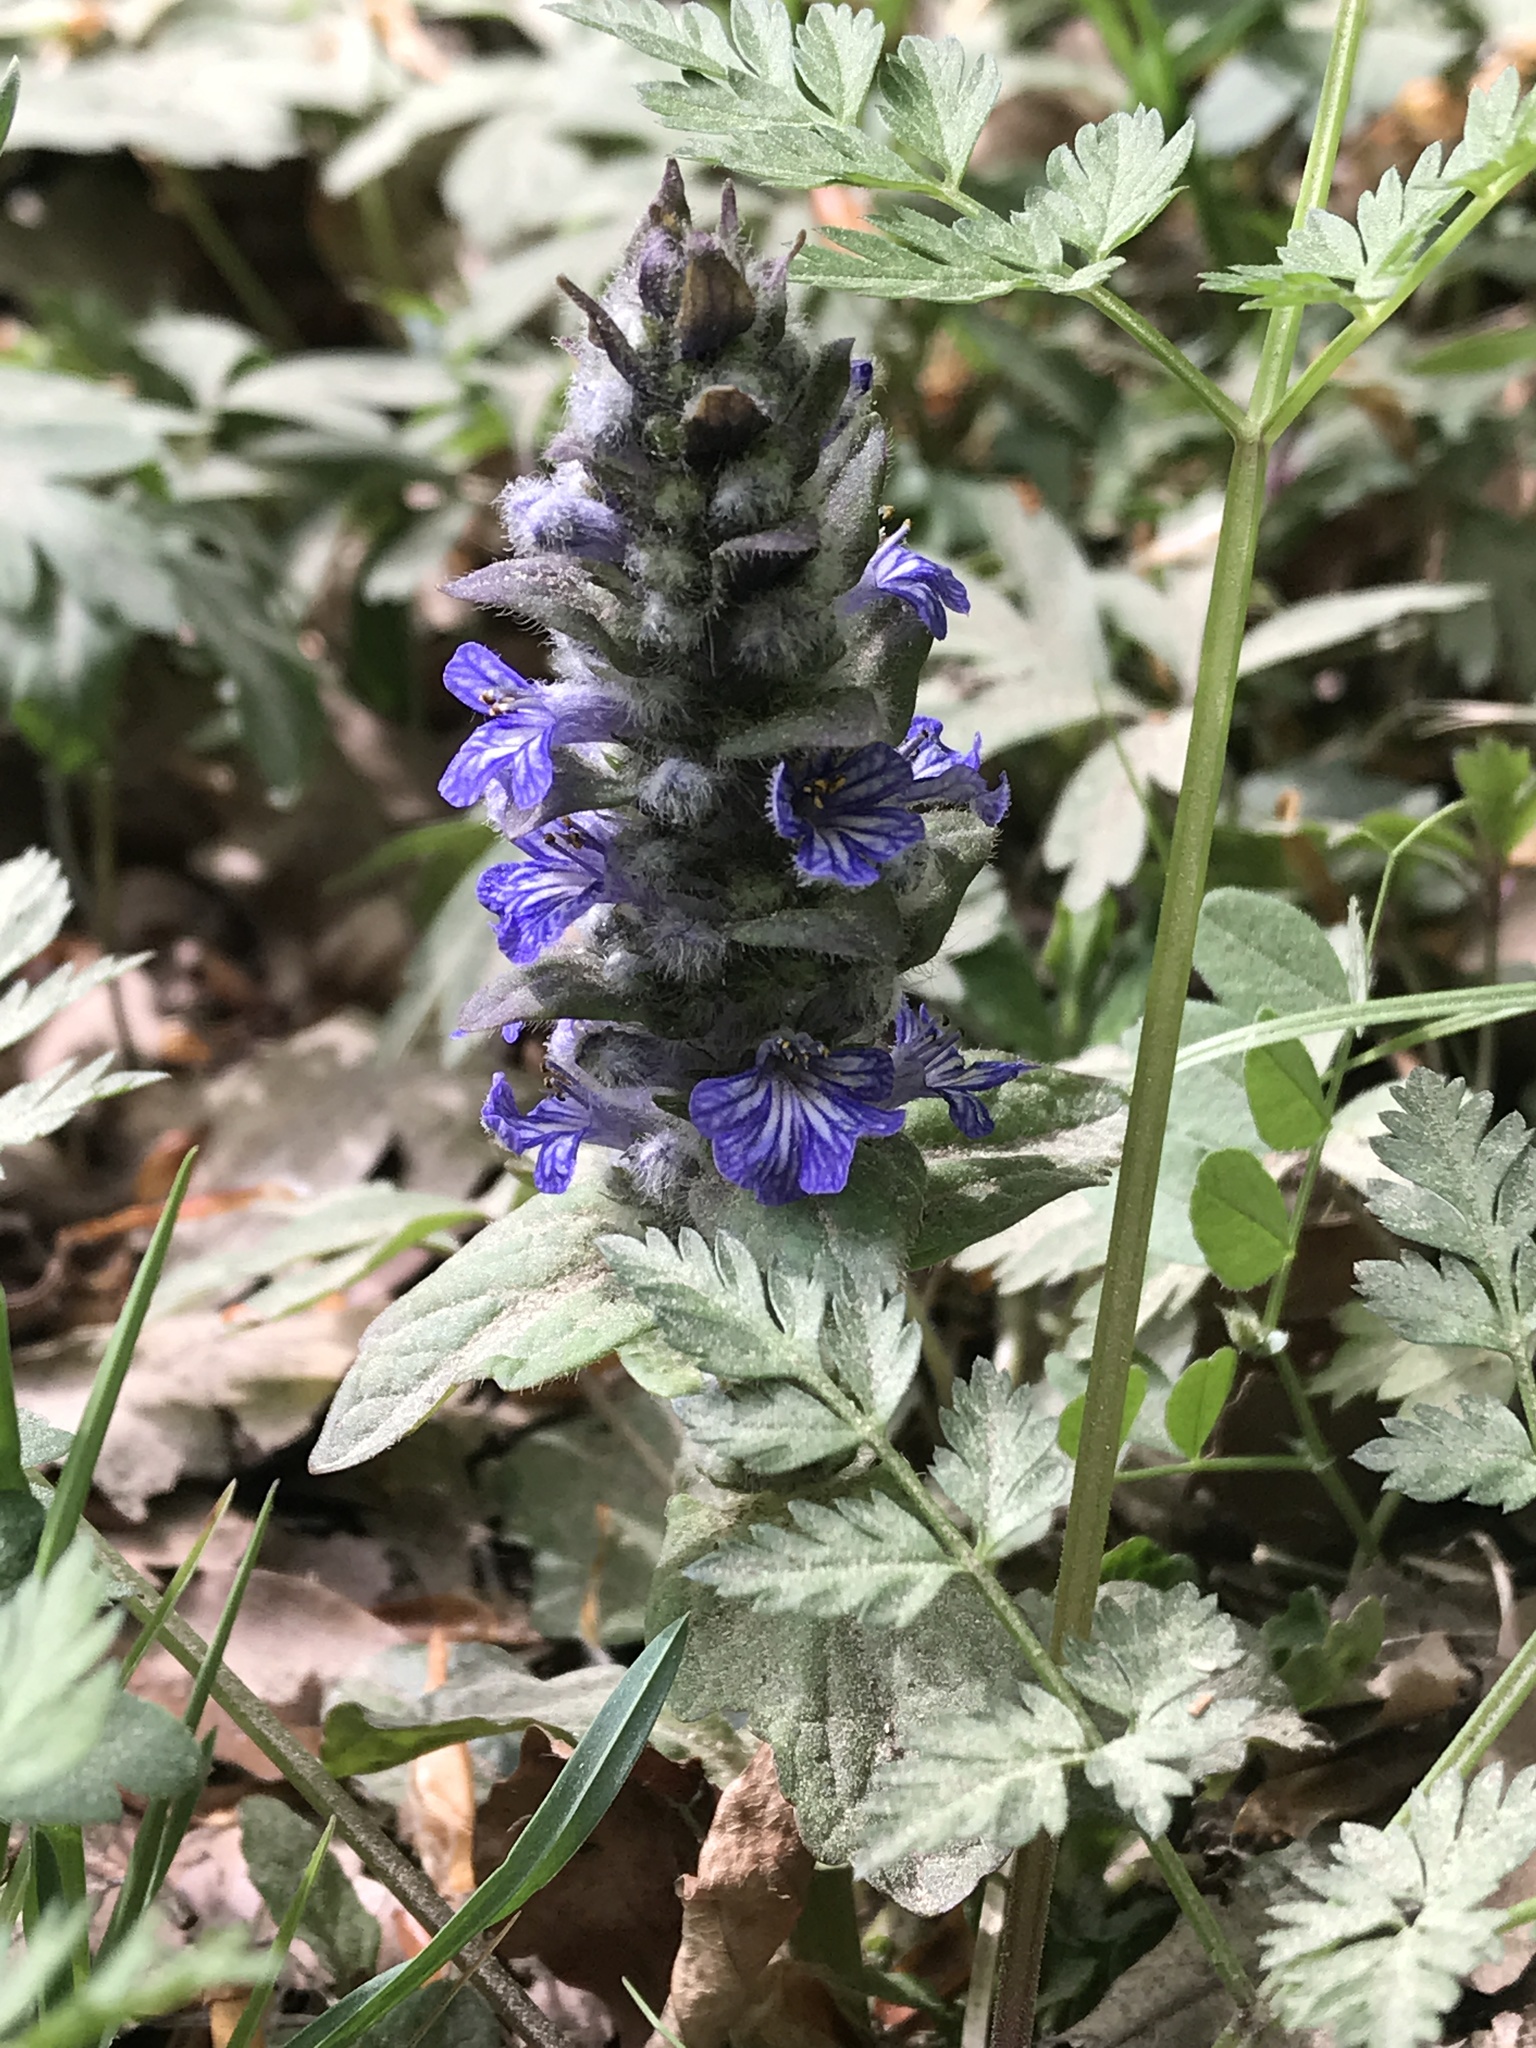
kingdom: Plantae
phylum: Tracheophyta
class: Magnoliopsida
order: Lamiales
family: Lamiaceae
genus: Ajuga
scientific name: Ajuga reptans
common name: Bugle
